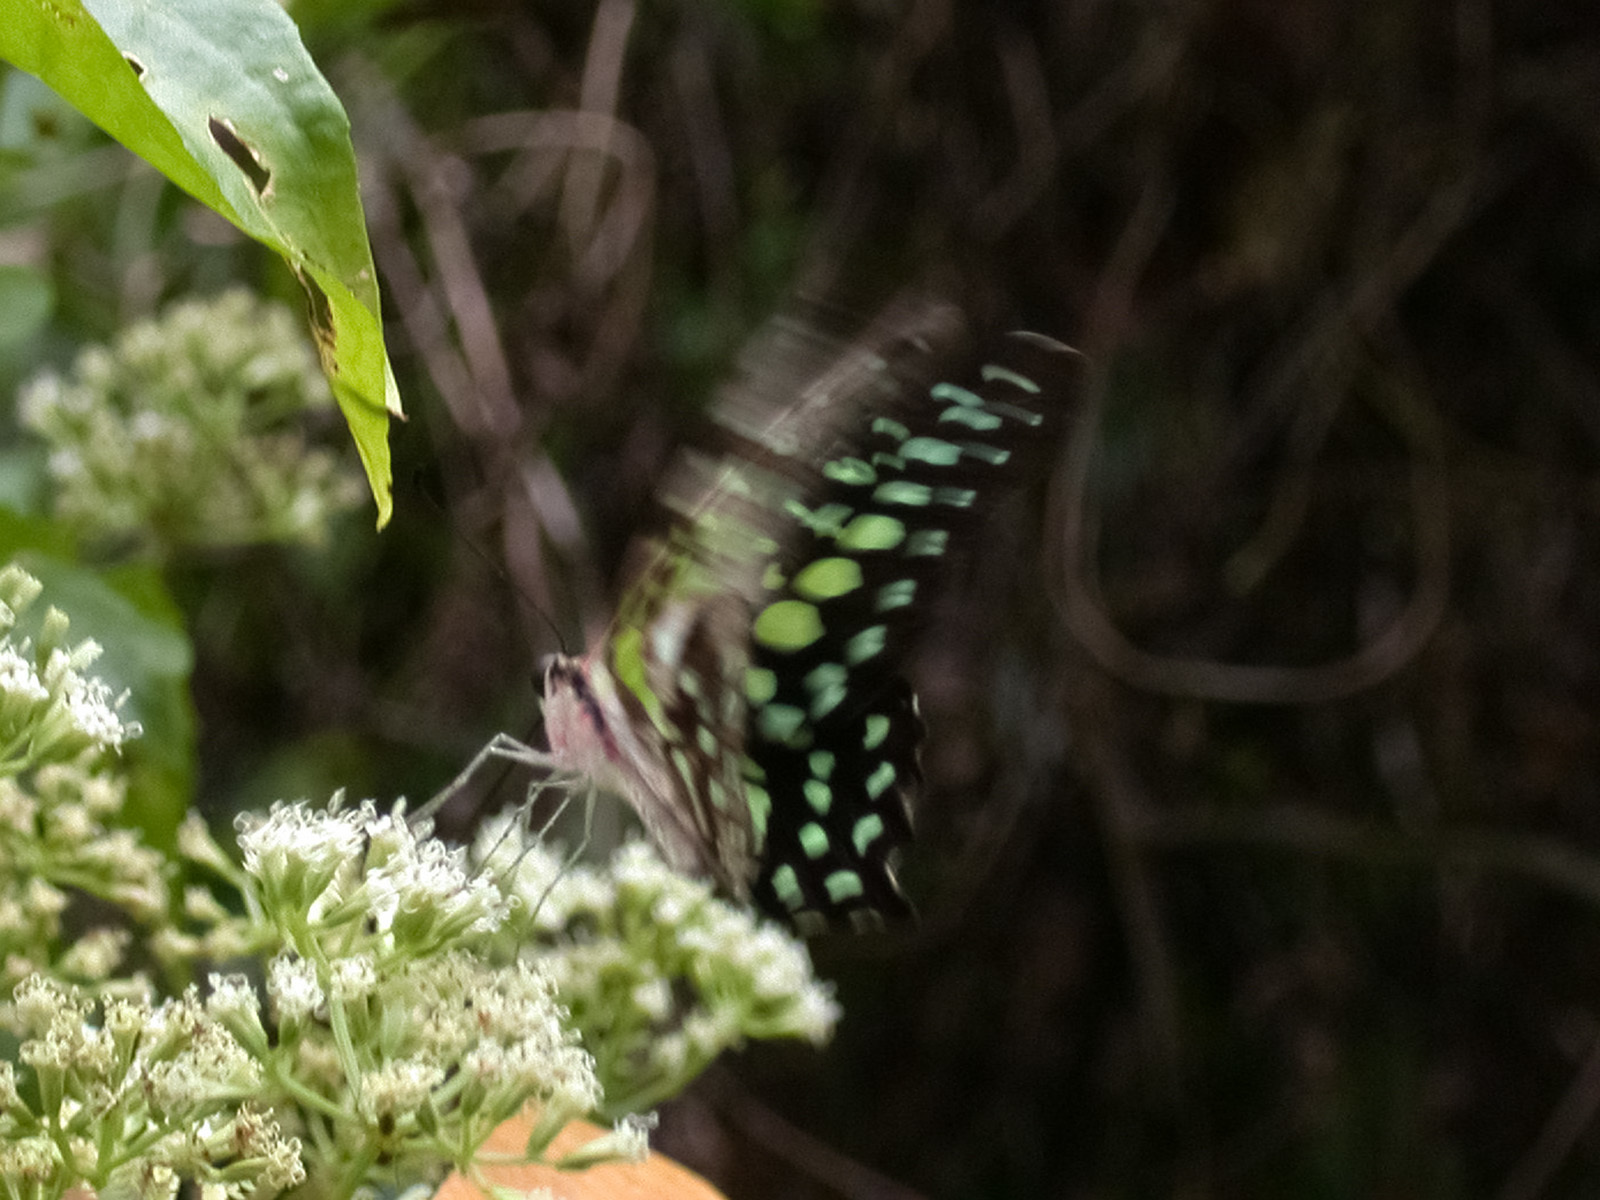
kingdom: Animalia
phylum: Arthropoda
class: Insecta
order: Lepidoptera
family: Papilionidae
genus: Graphium
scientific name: Graphium agamemnon
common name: Tailed jay
